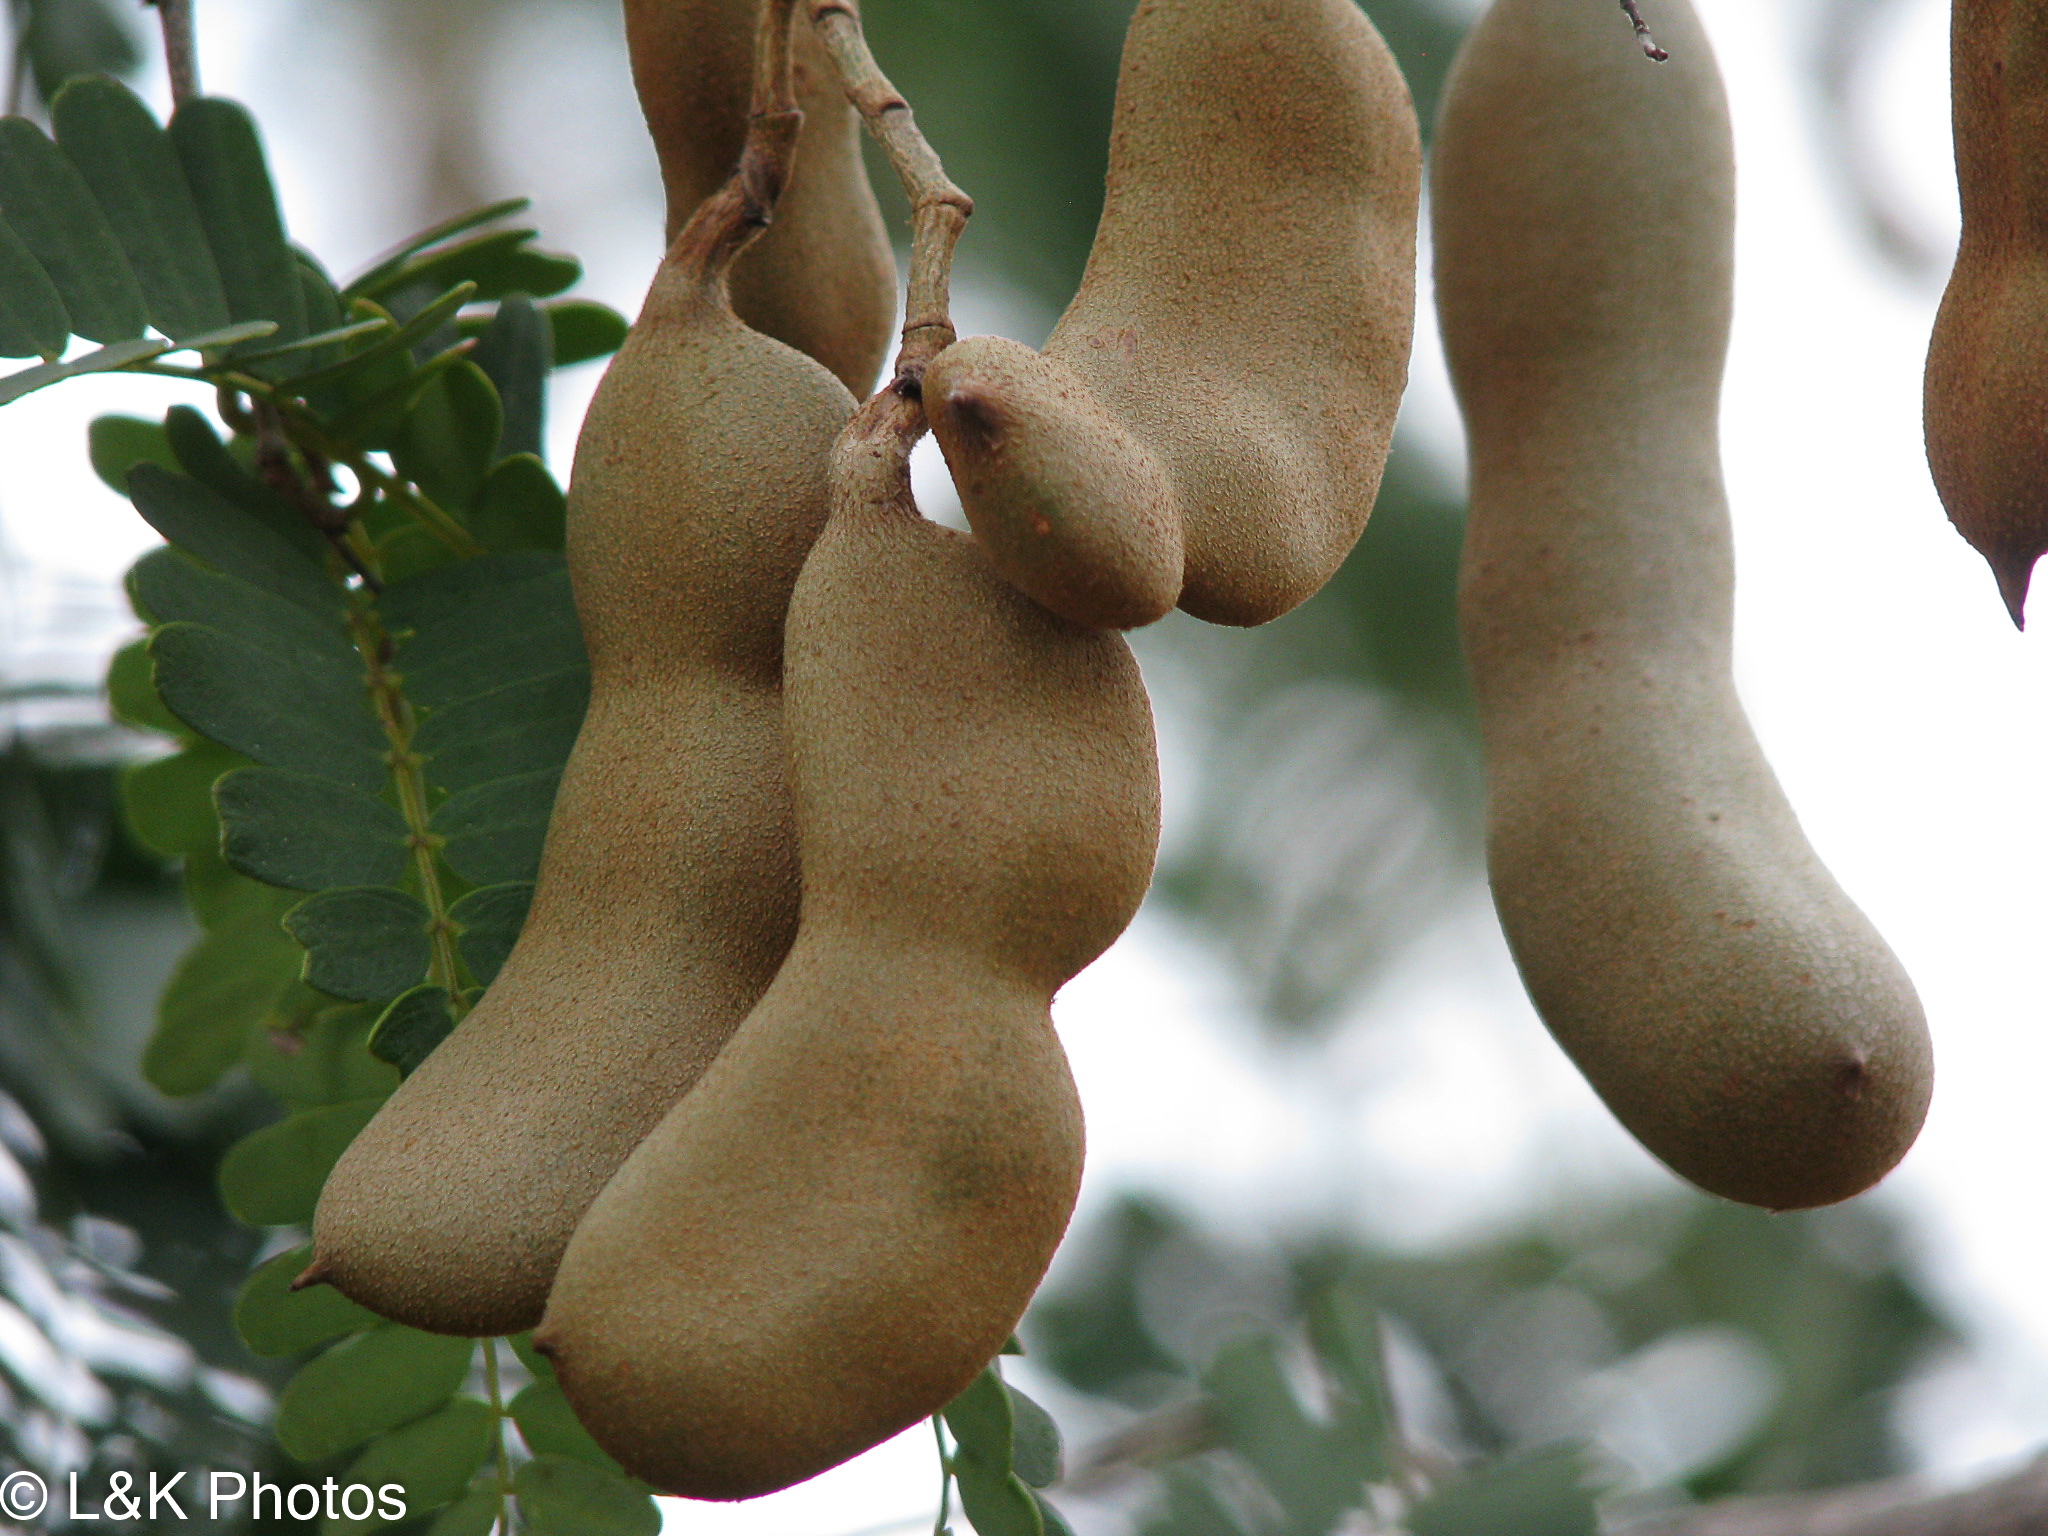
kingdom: Plantae
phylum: Tracheophyta
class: Magnoliopsida
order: Fabales
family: Fabaceae
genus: Tamarindus
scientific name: Tamarindus indica
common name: Tamarind
